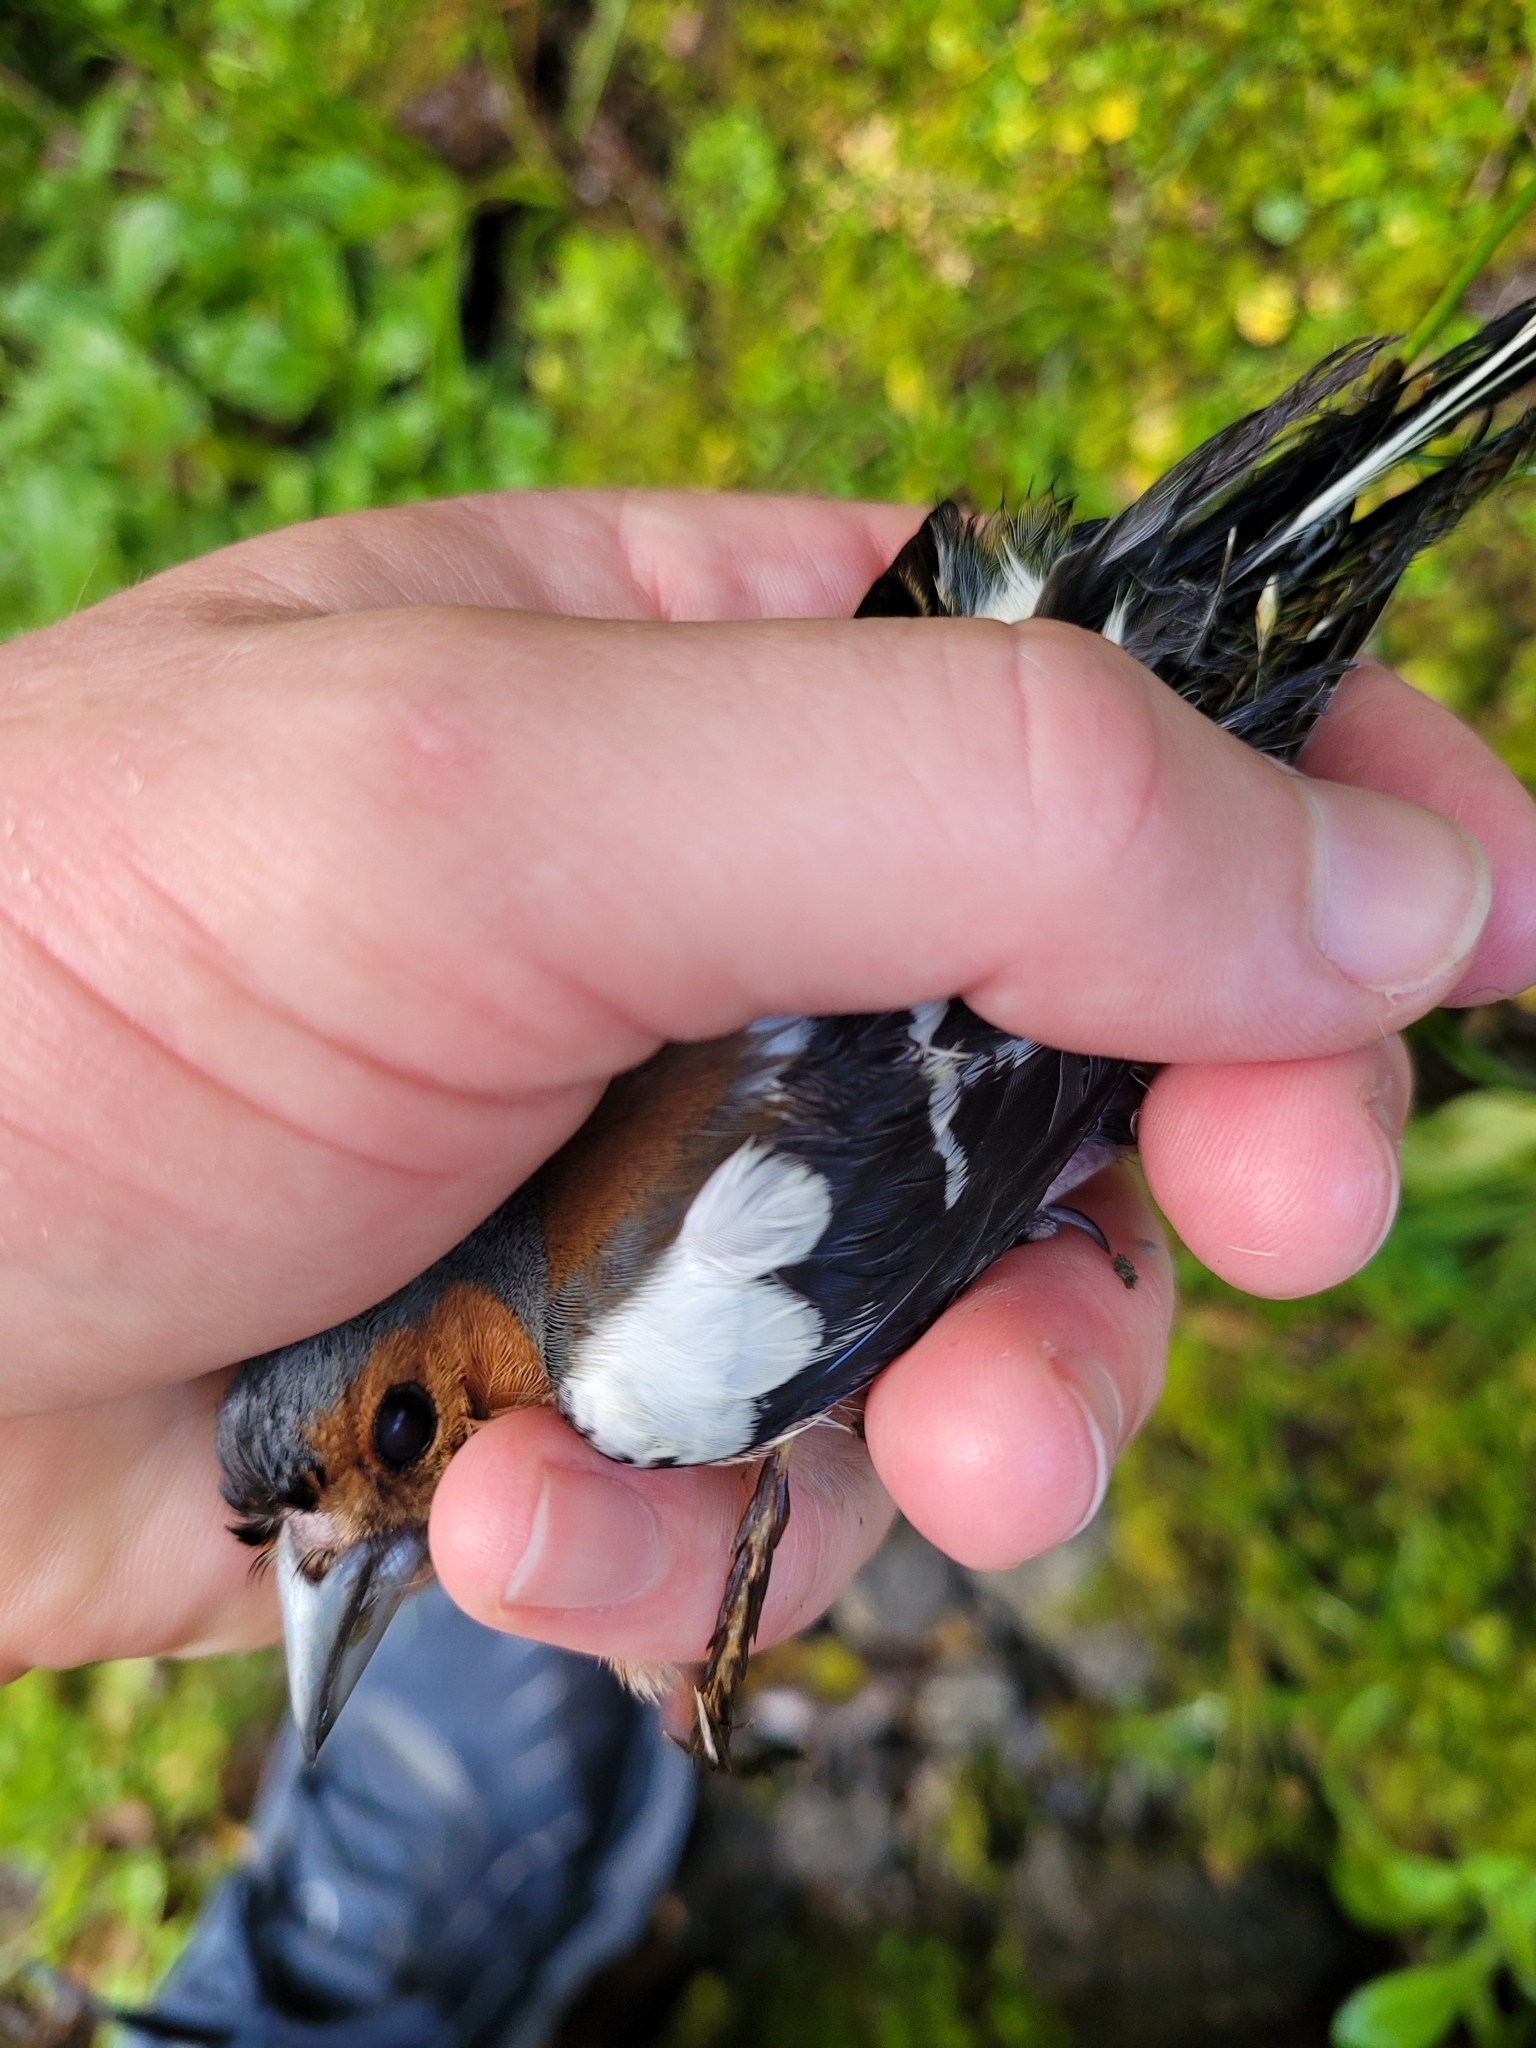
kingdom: Animalia
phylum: Chordata
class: Aves
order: Passeriformes
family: Fringillidae
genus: Fringilla
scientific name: Fringilla coelebs
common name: Common chaffinch
